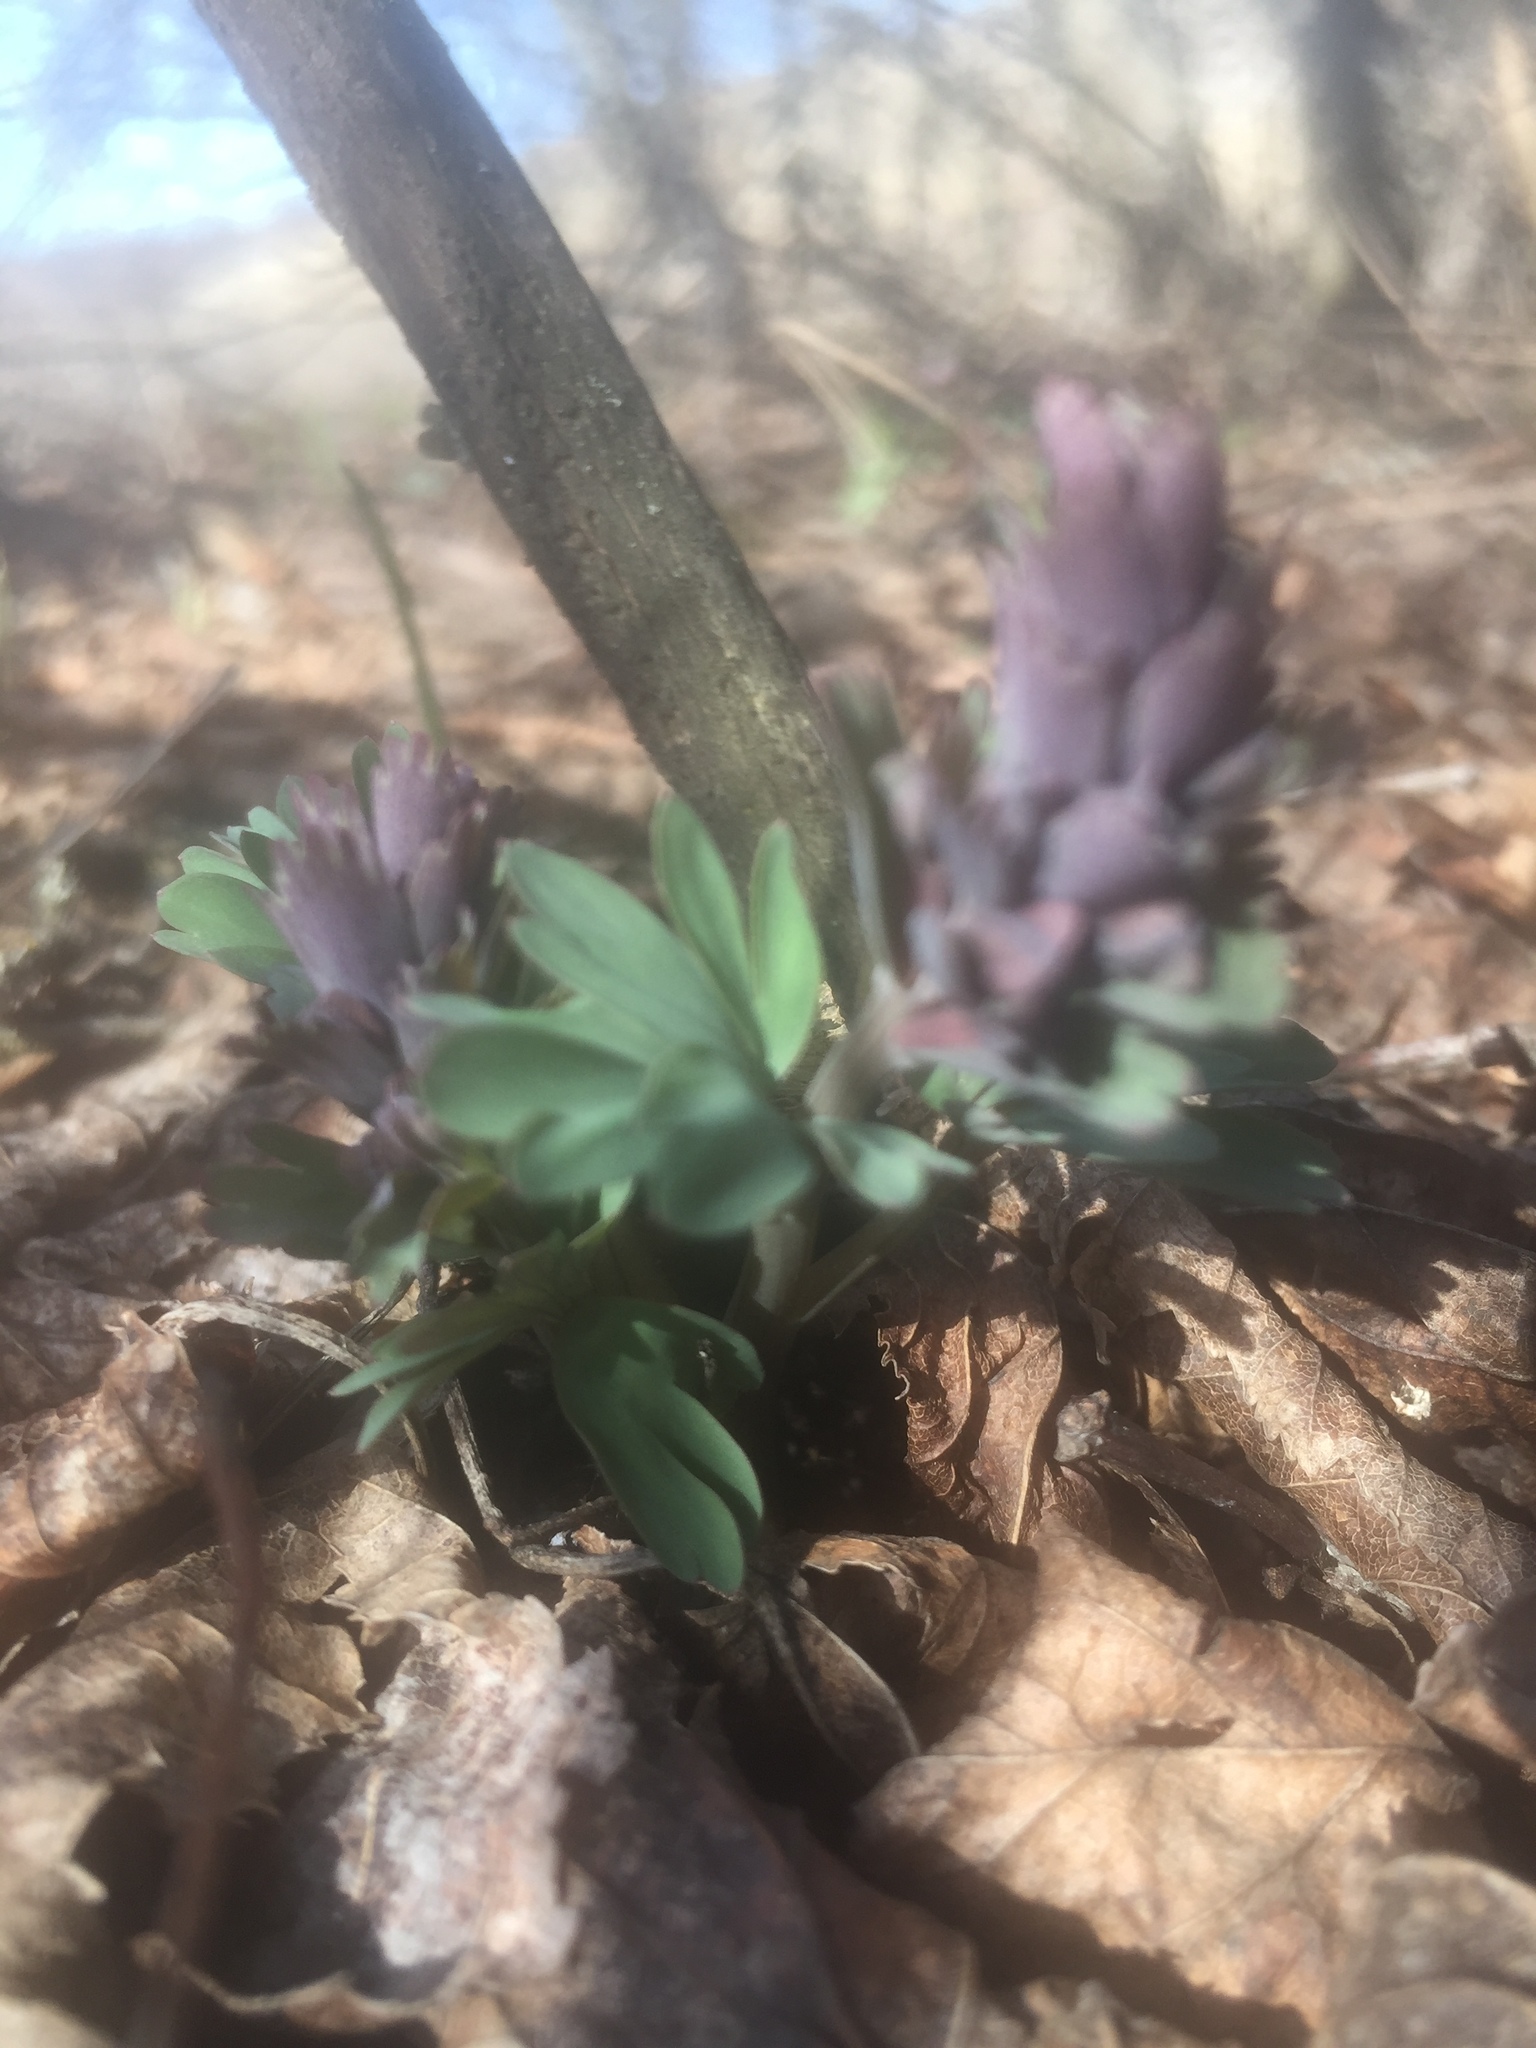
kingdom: Plantae
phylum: Tracheophyta
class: Magnoliopsida
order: Ranunculales
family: Papaveraceae
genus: Corydalis
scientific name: Corydalis solida
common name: Bird-in-a-bush
